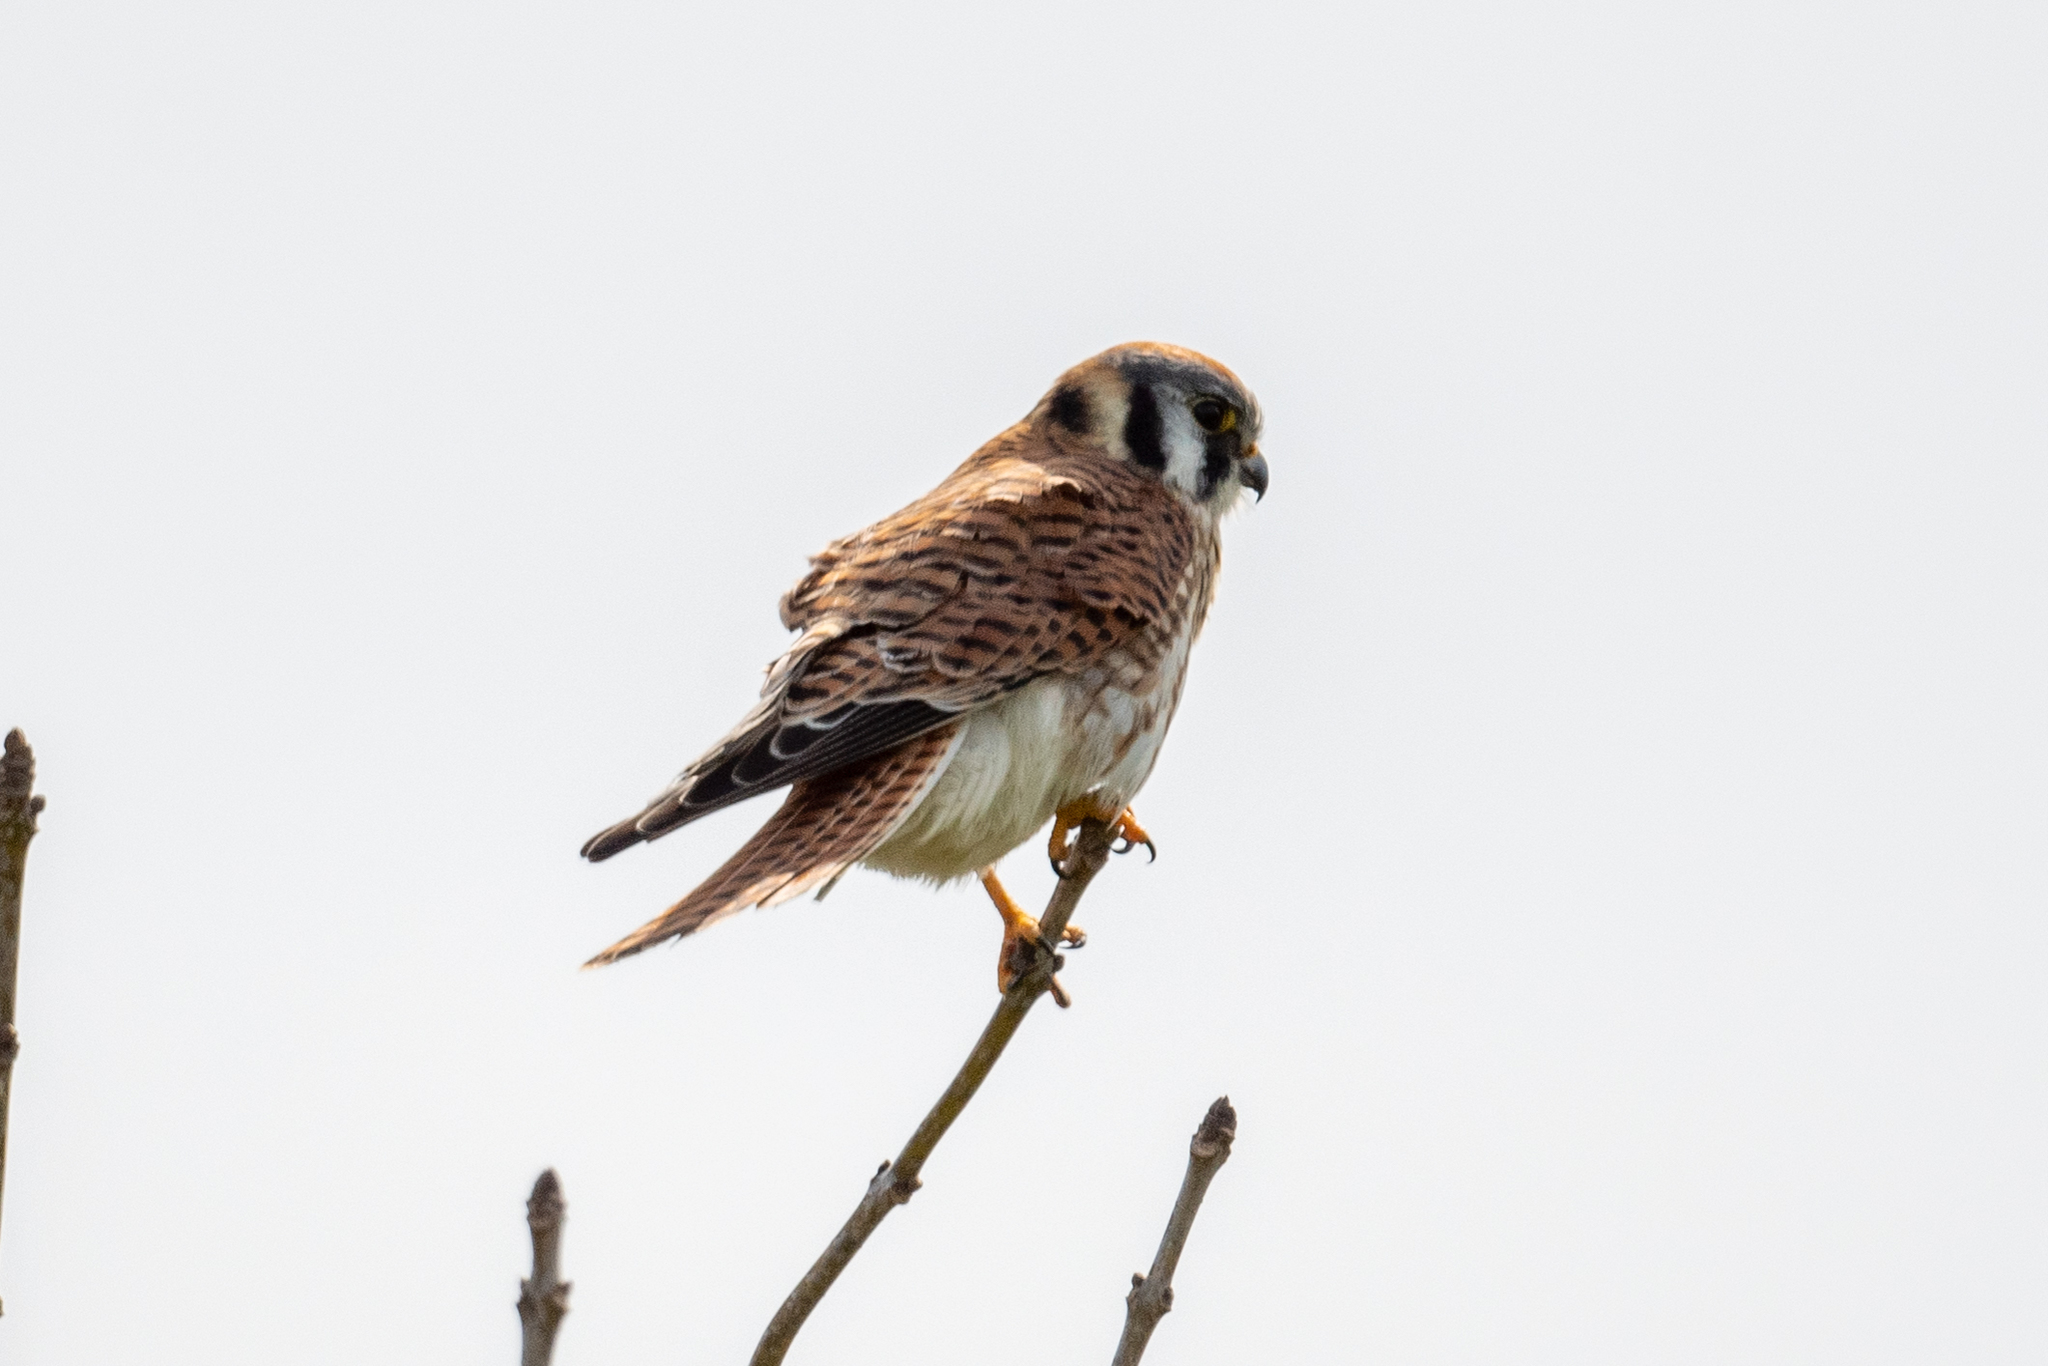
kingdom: Animalia
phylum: Chordata
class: Aves
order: Falconiformes
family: Falconidae
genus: Falco
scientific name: Falco sparverius
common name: American kestrel
